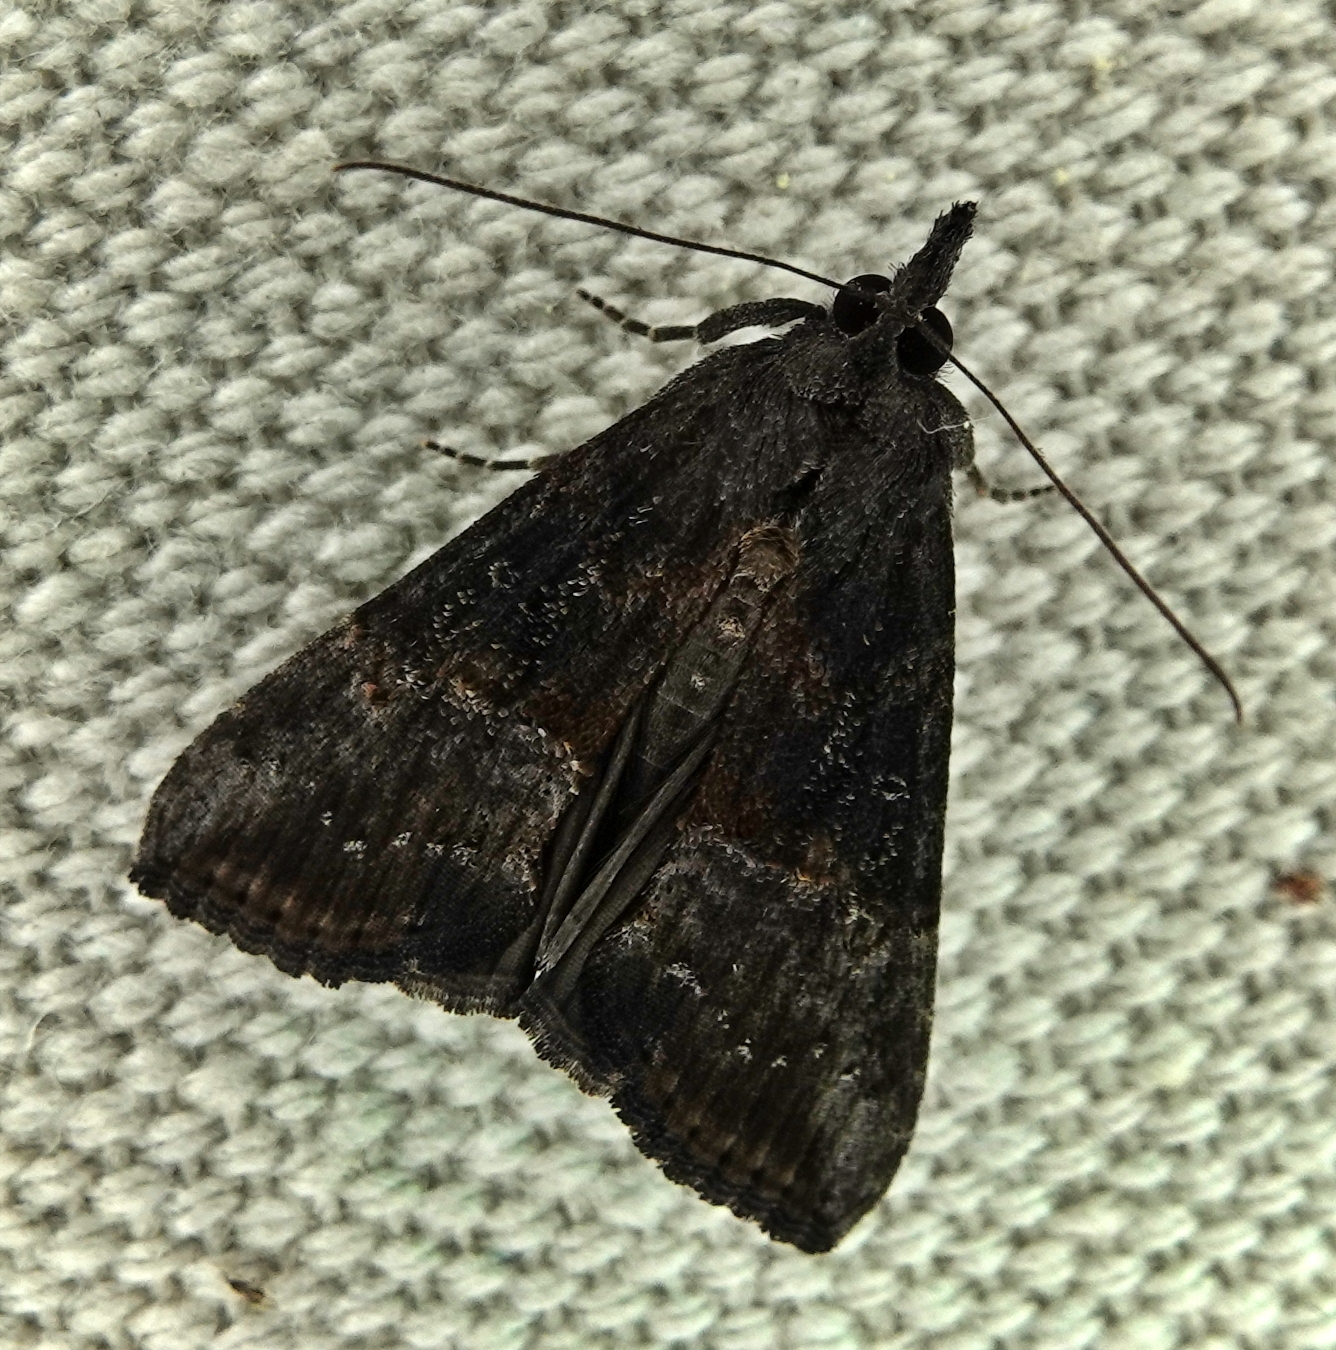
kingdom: Animalia
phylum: Arthropoda
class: Insecta
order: Lepidoptera
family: Erebidae
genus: Hypena
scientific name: Hypena scabra
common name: Green cloverworm
